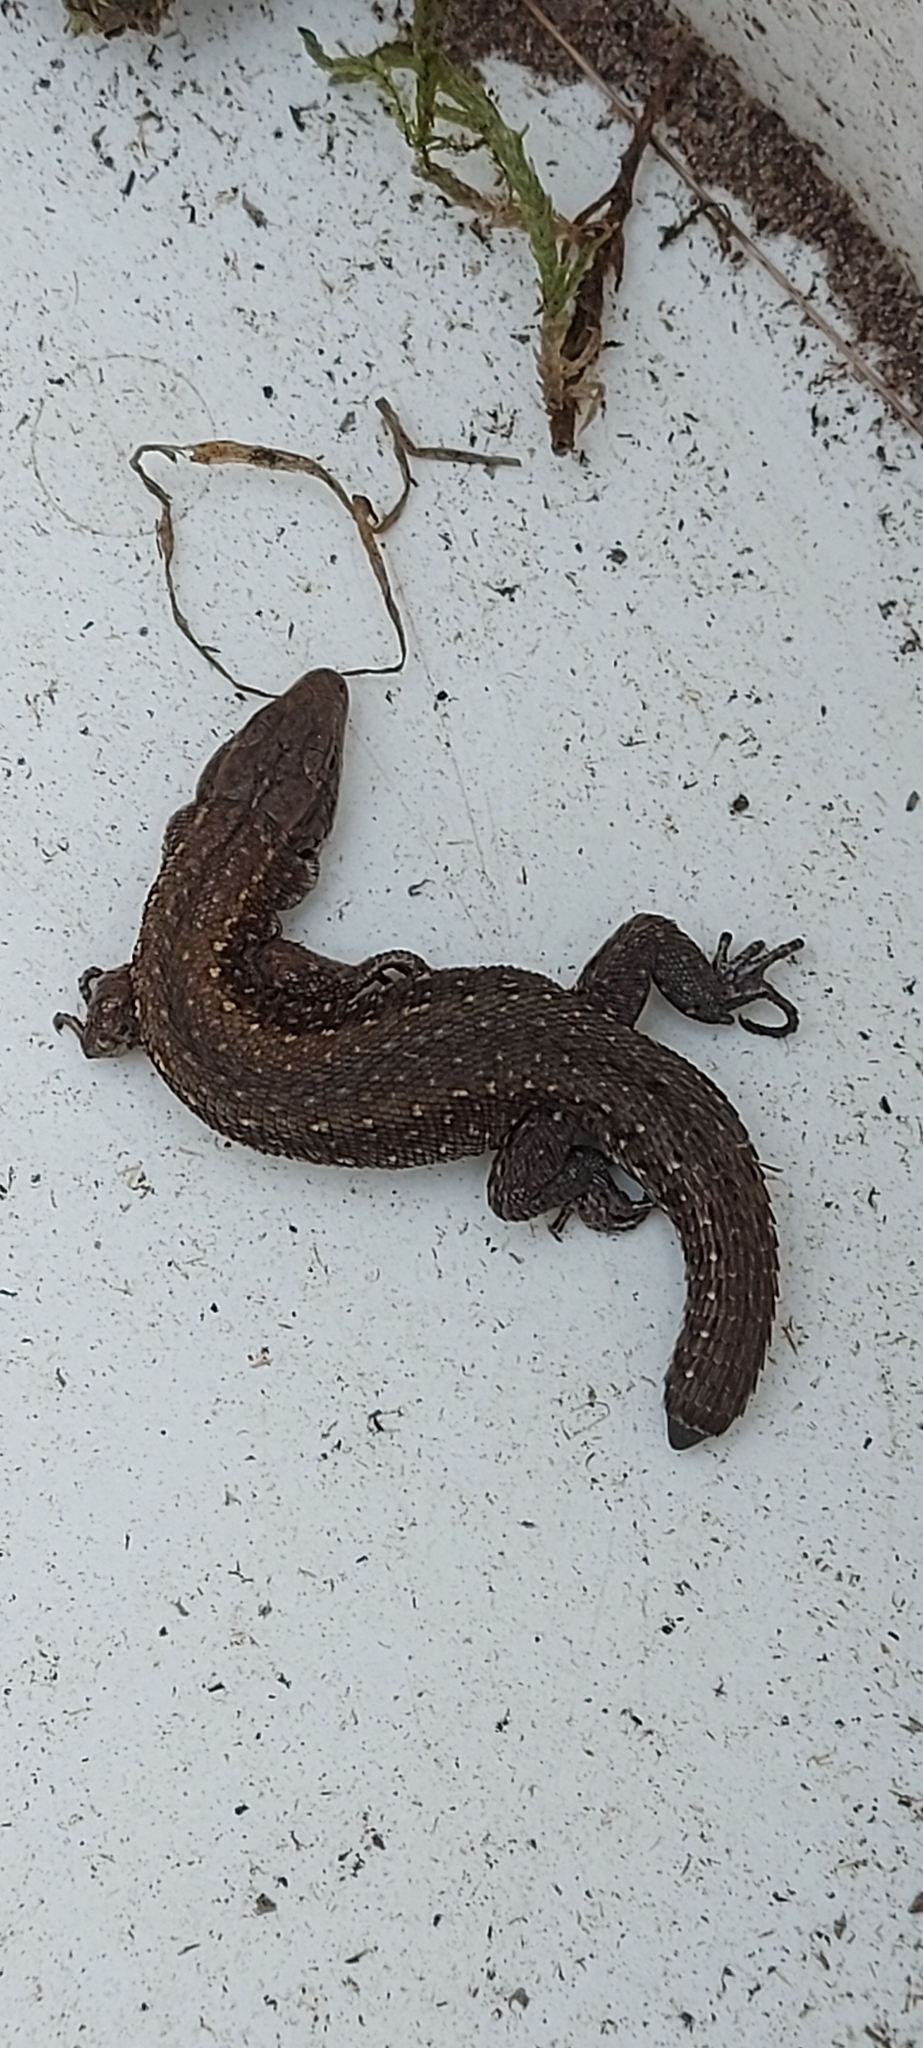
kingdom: Animalia
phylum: Chordata
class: Squamata
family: Lacertidae
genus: Zootoca
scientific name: Zootoca vivipara
